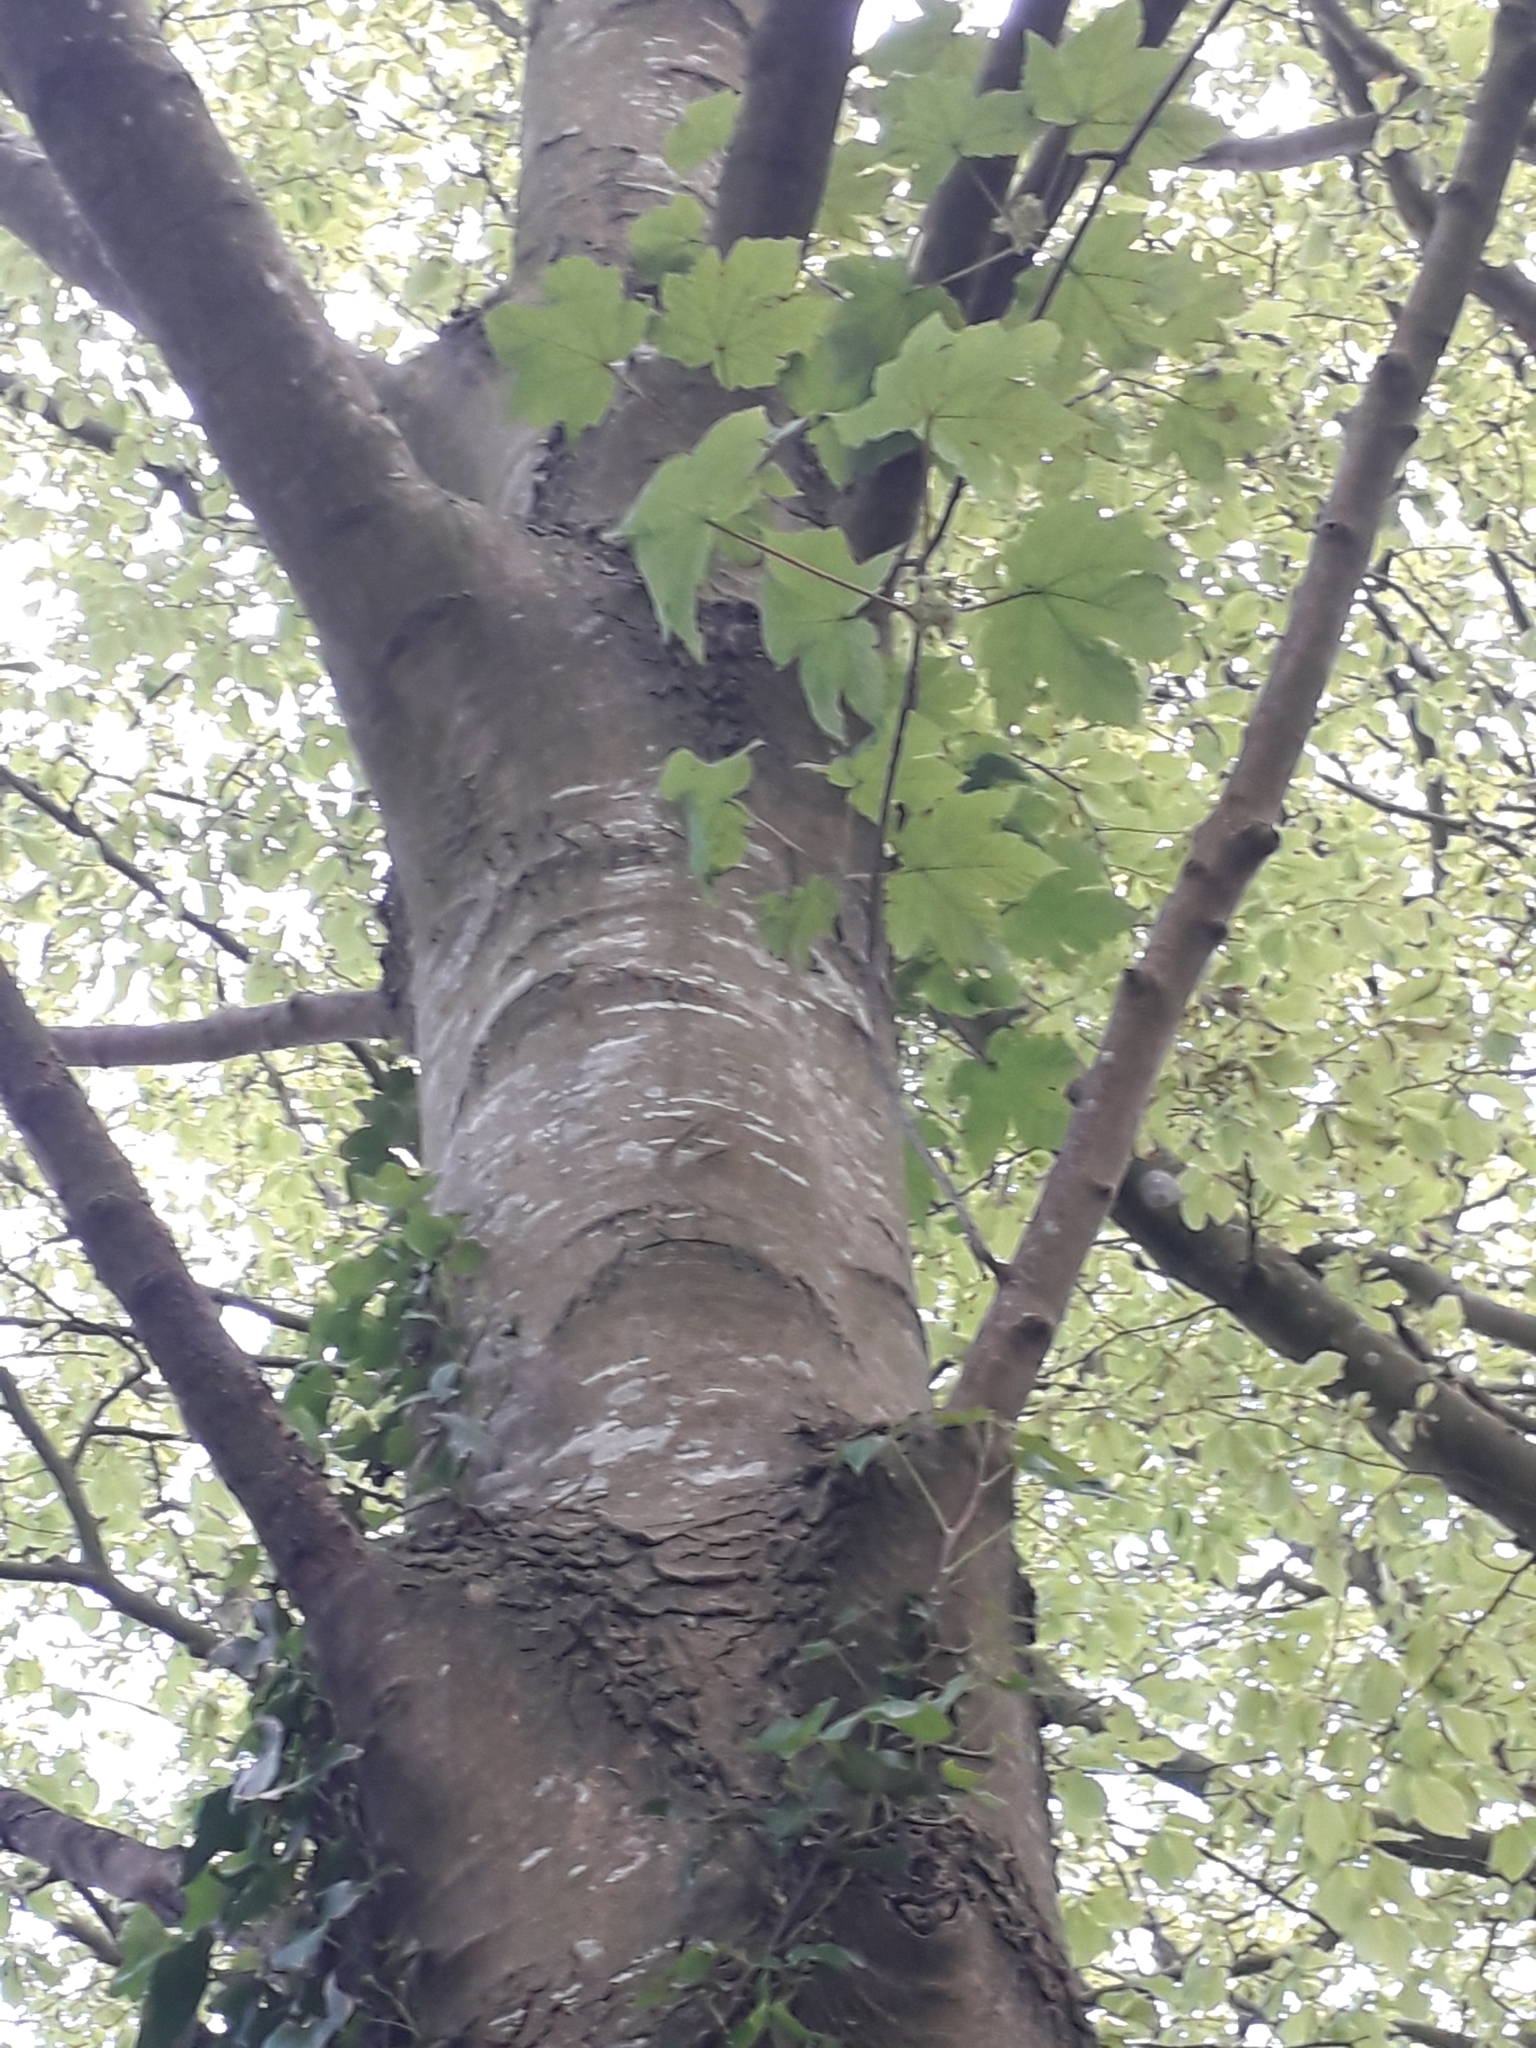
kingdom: Plantae
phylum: Tracheophyta
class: Magnoliopsida
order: Sapindales
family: Sapindaceae
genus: Acer
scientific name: Acer pseudoplatanus
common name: Sycamore
